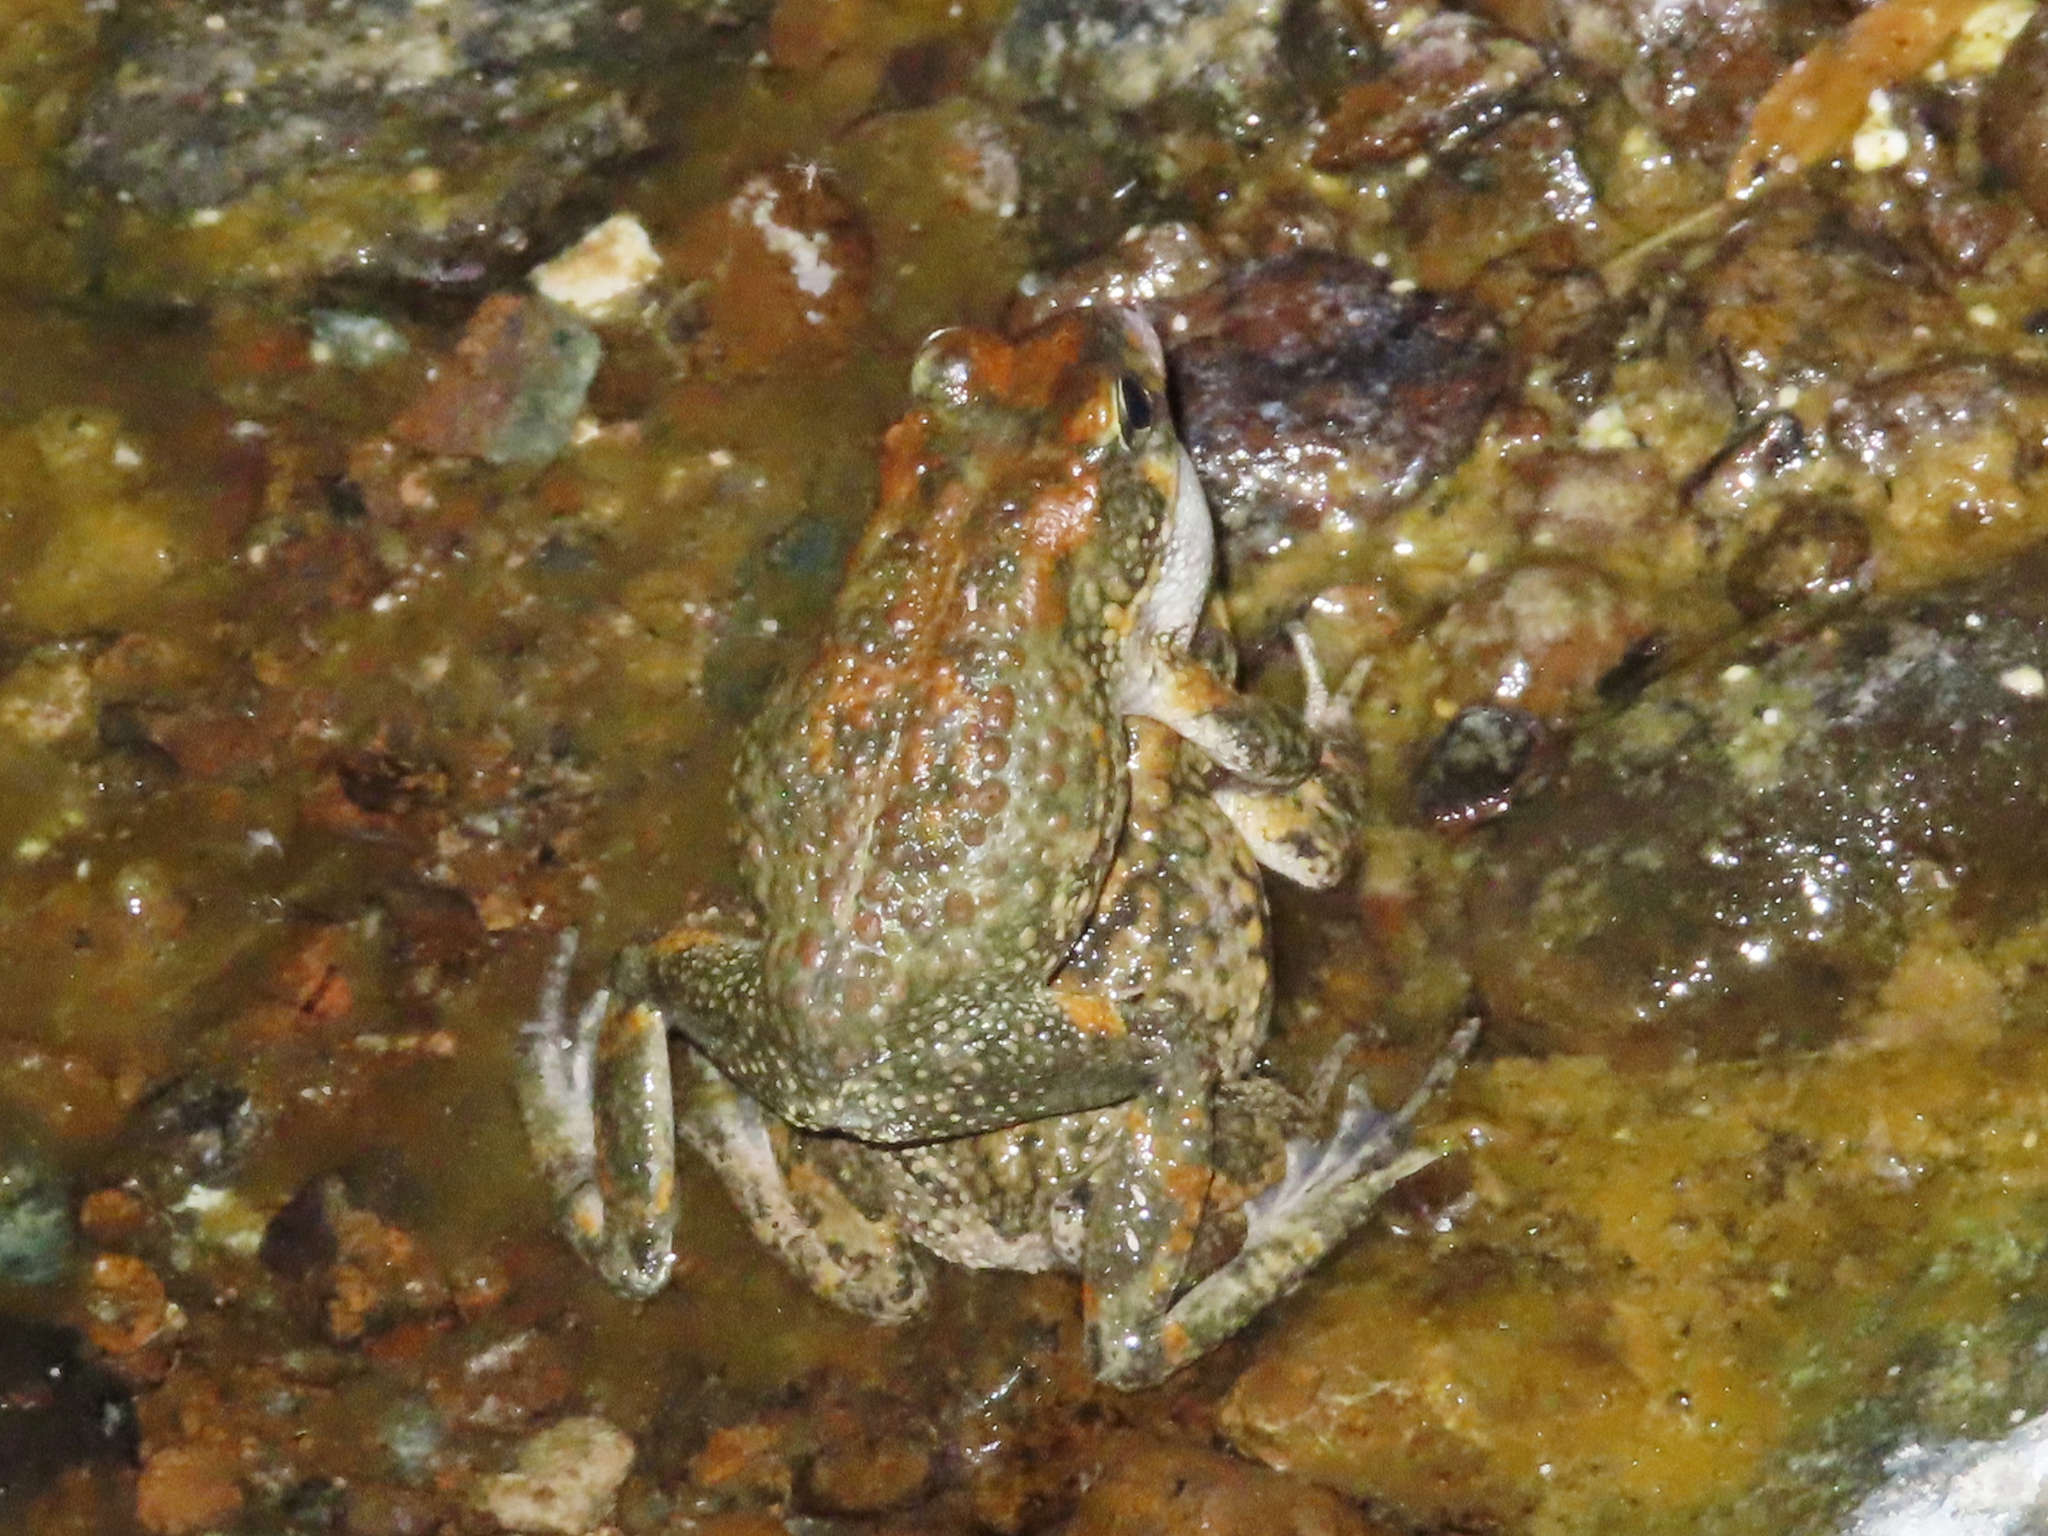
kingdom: Animalia
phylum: Chordata
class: Amphibia
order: Anura
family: Bufonidae
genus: Sclerophrys
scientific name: Sclerophrys arabica
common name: Arabian toad
